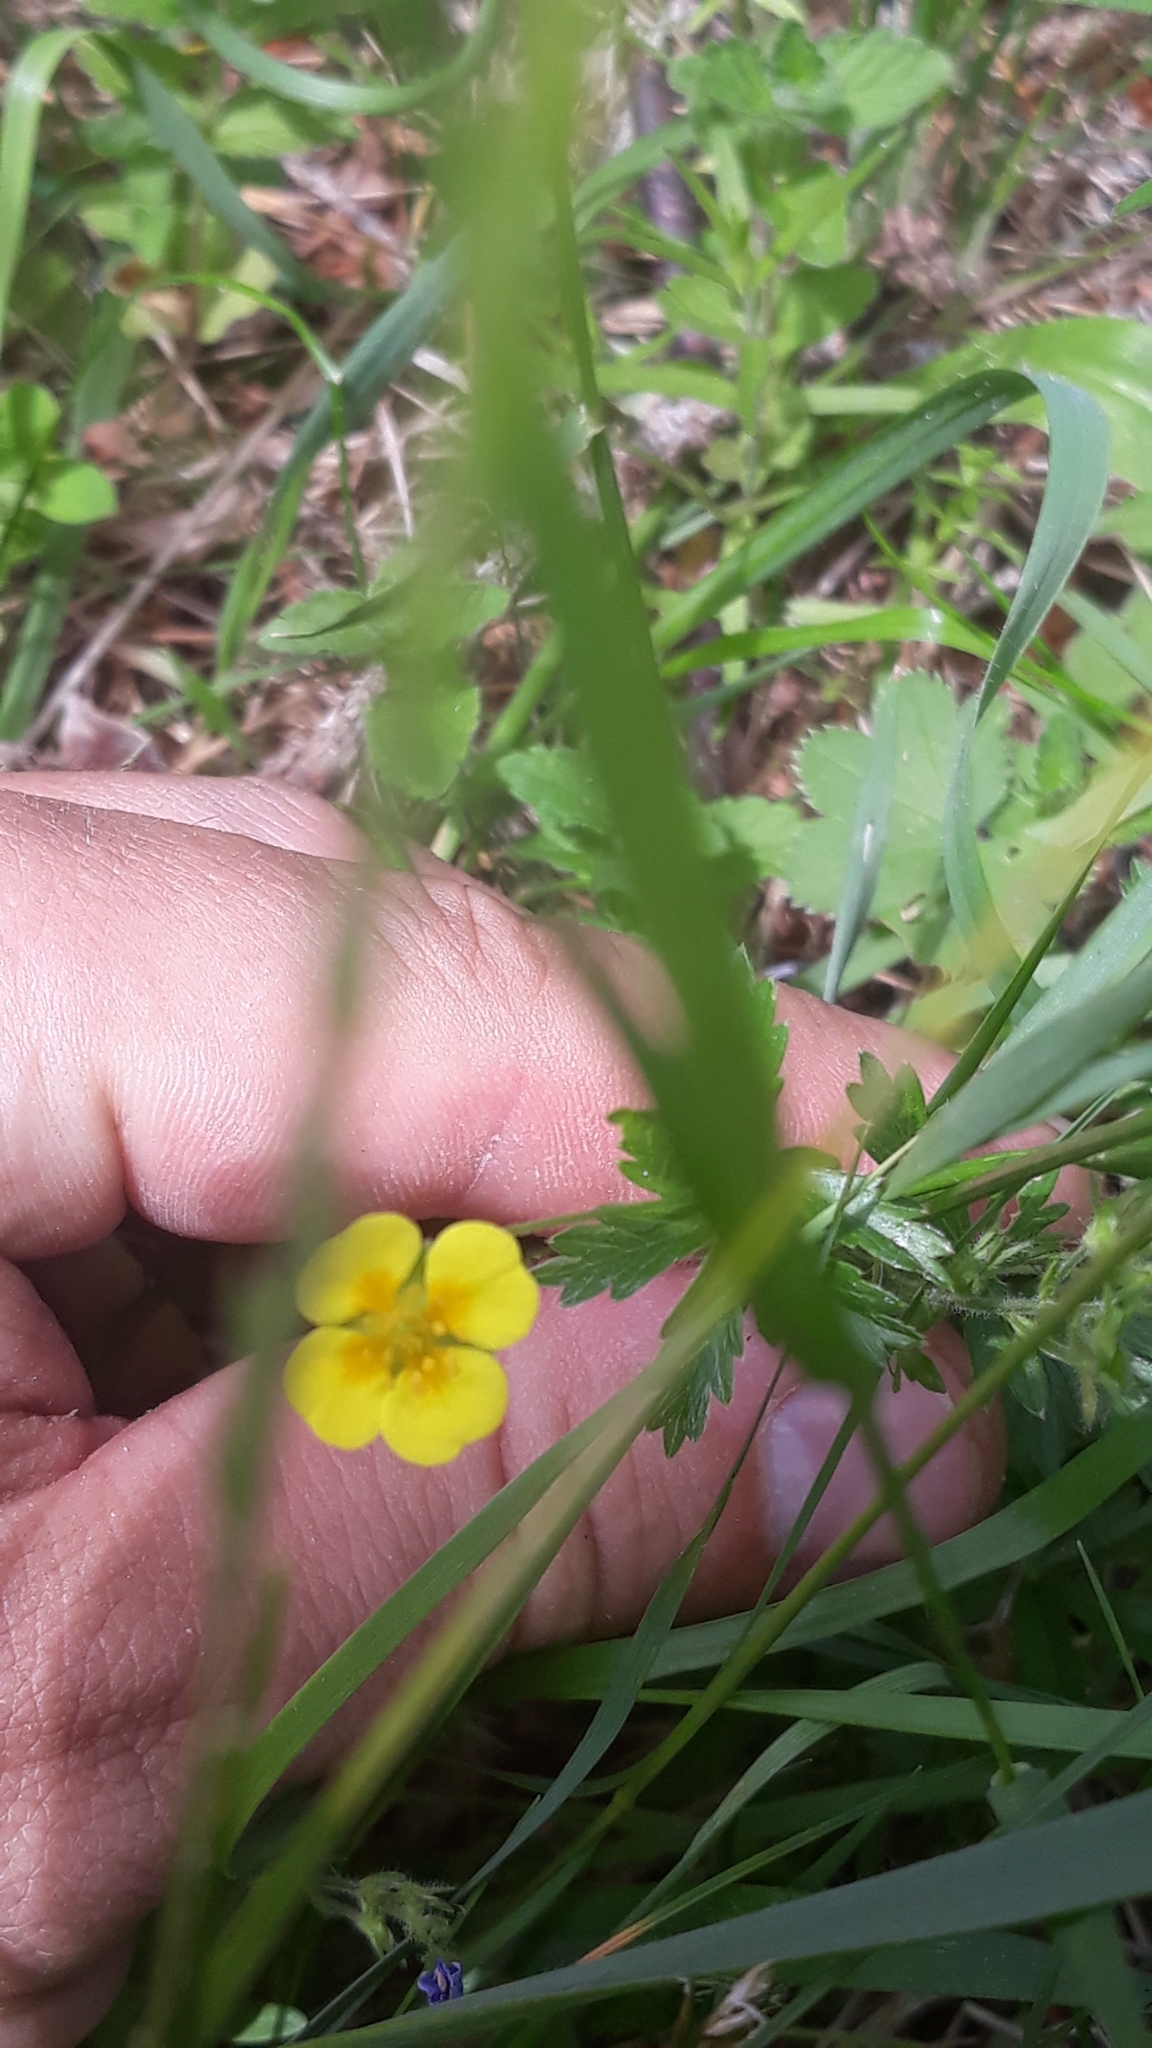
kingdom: Plantae
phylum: Tracheophyta
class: Magnoliopsida
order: Rosales
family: Rosaceae
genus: Potentilla
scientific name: Potentilla erecta
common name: Tormentil
